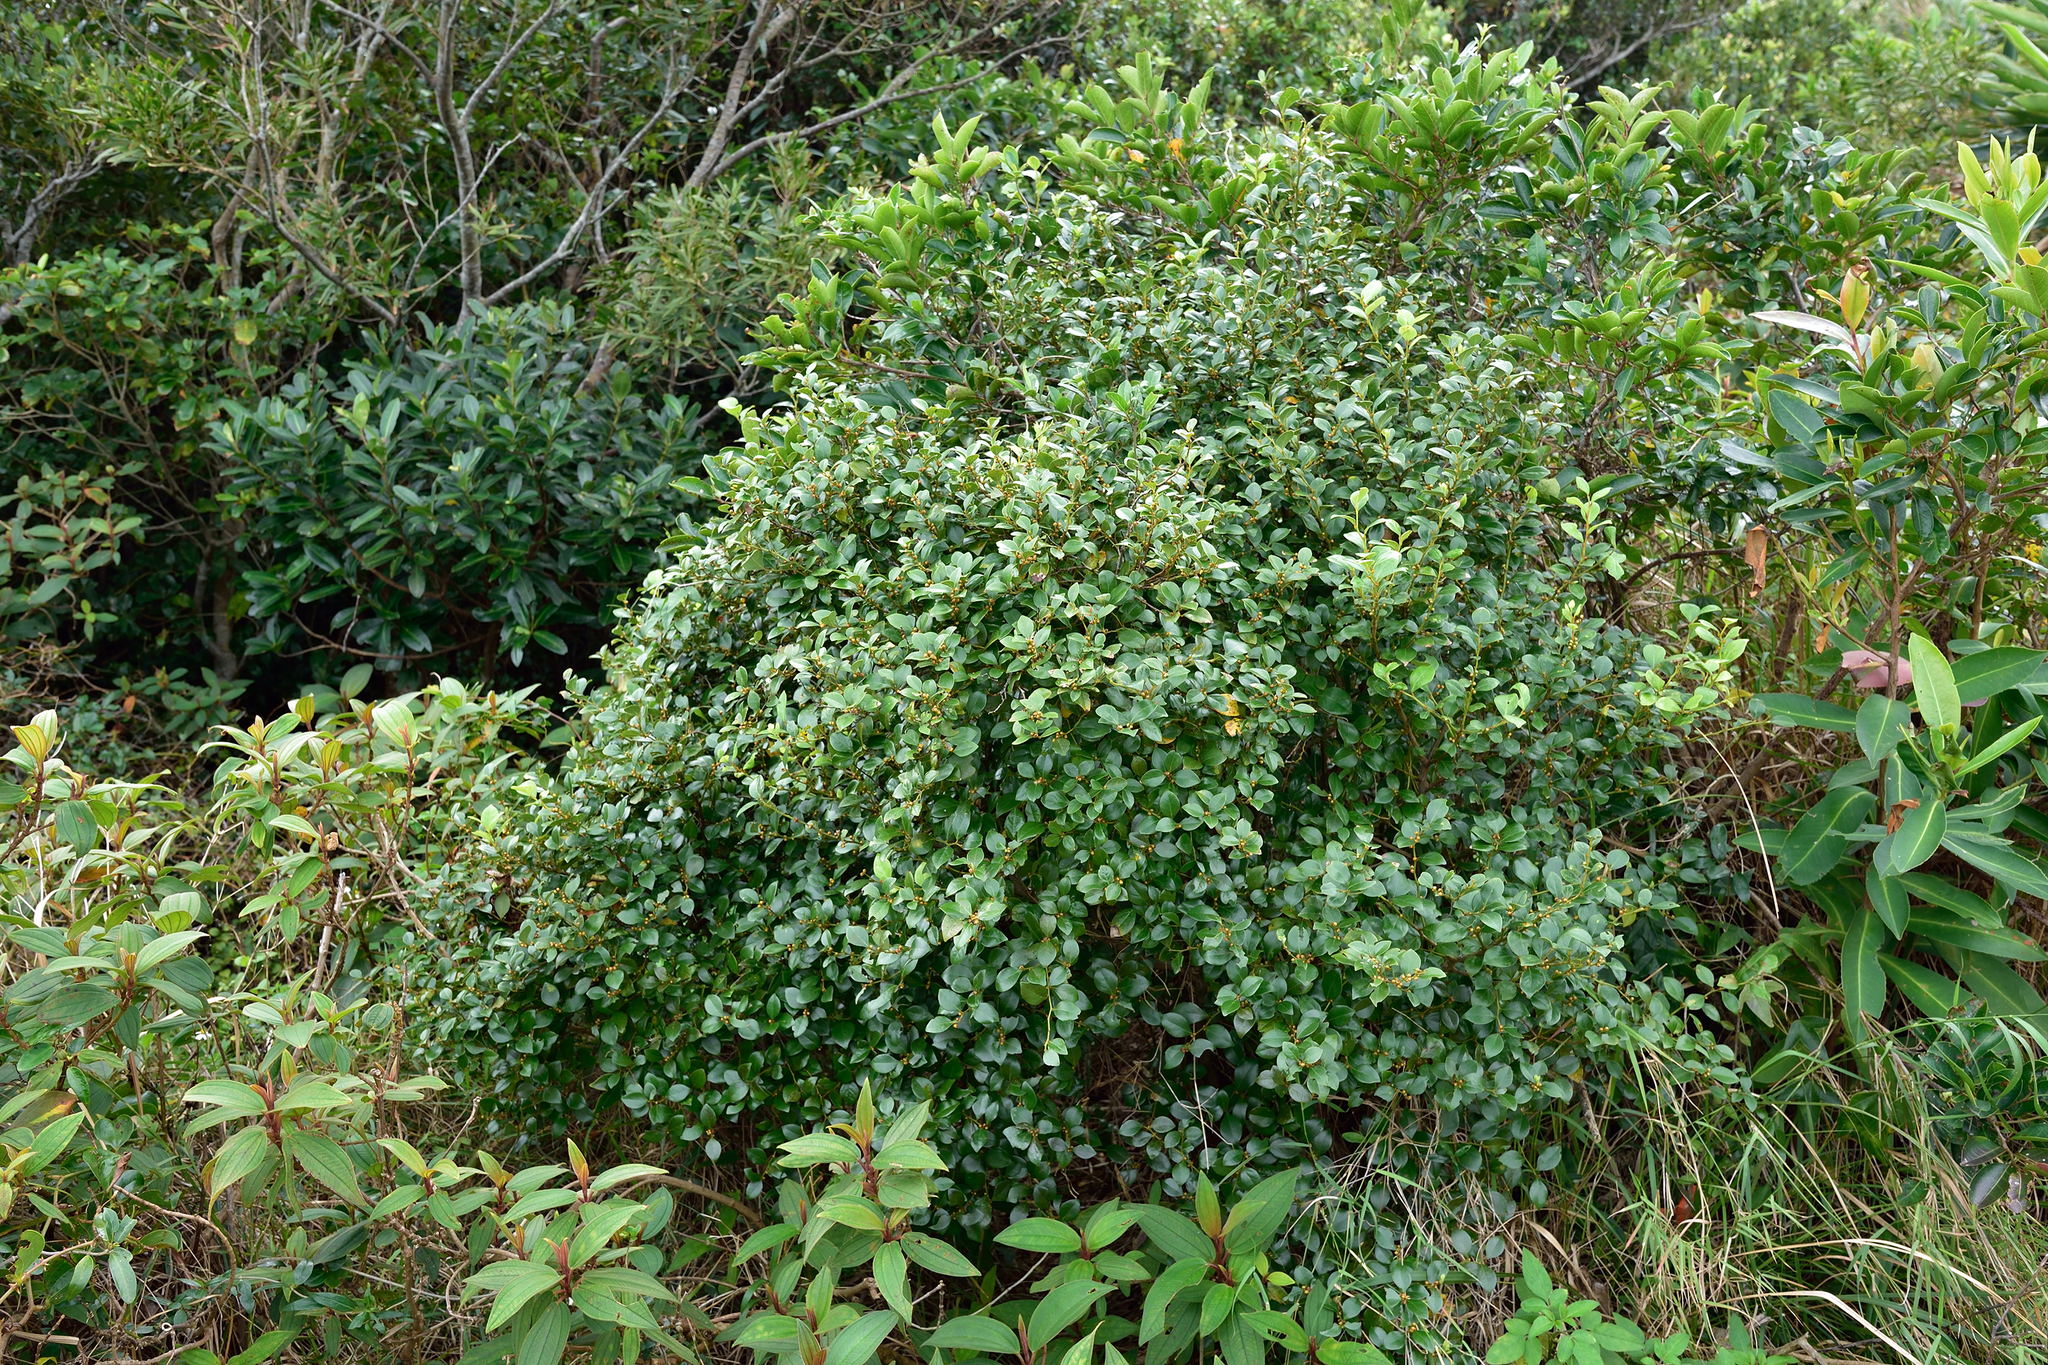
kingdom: Plantae
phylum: Tracheophyta
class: Magnoliopsida
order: Laurales
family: Lauraceae
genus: Lindera
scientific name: Lindera akoensis
